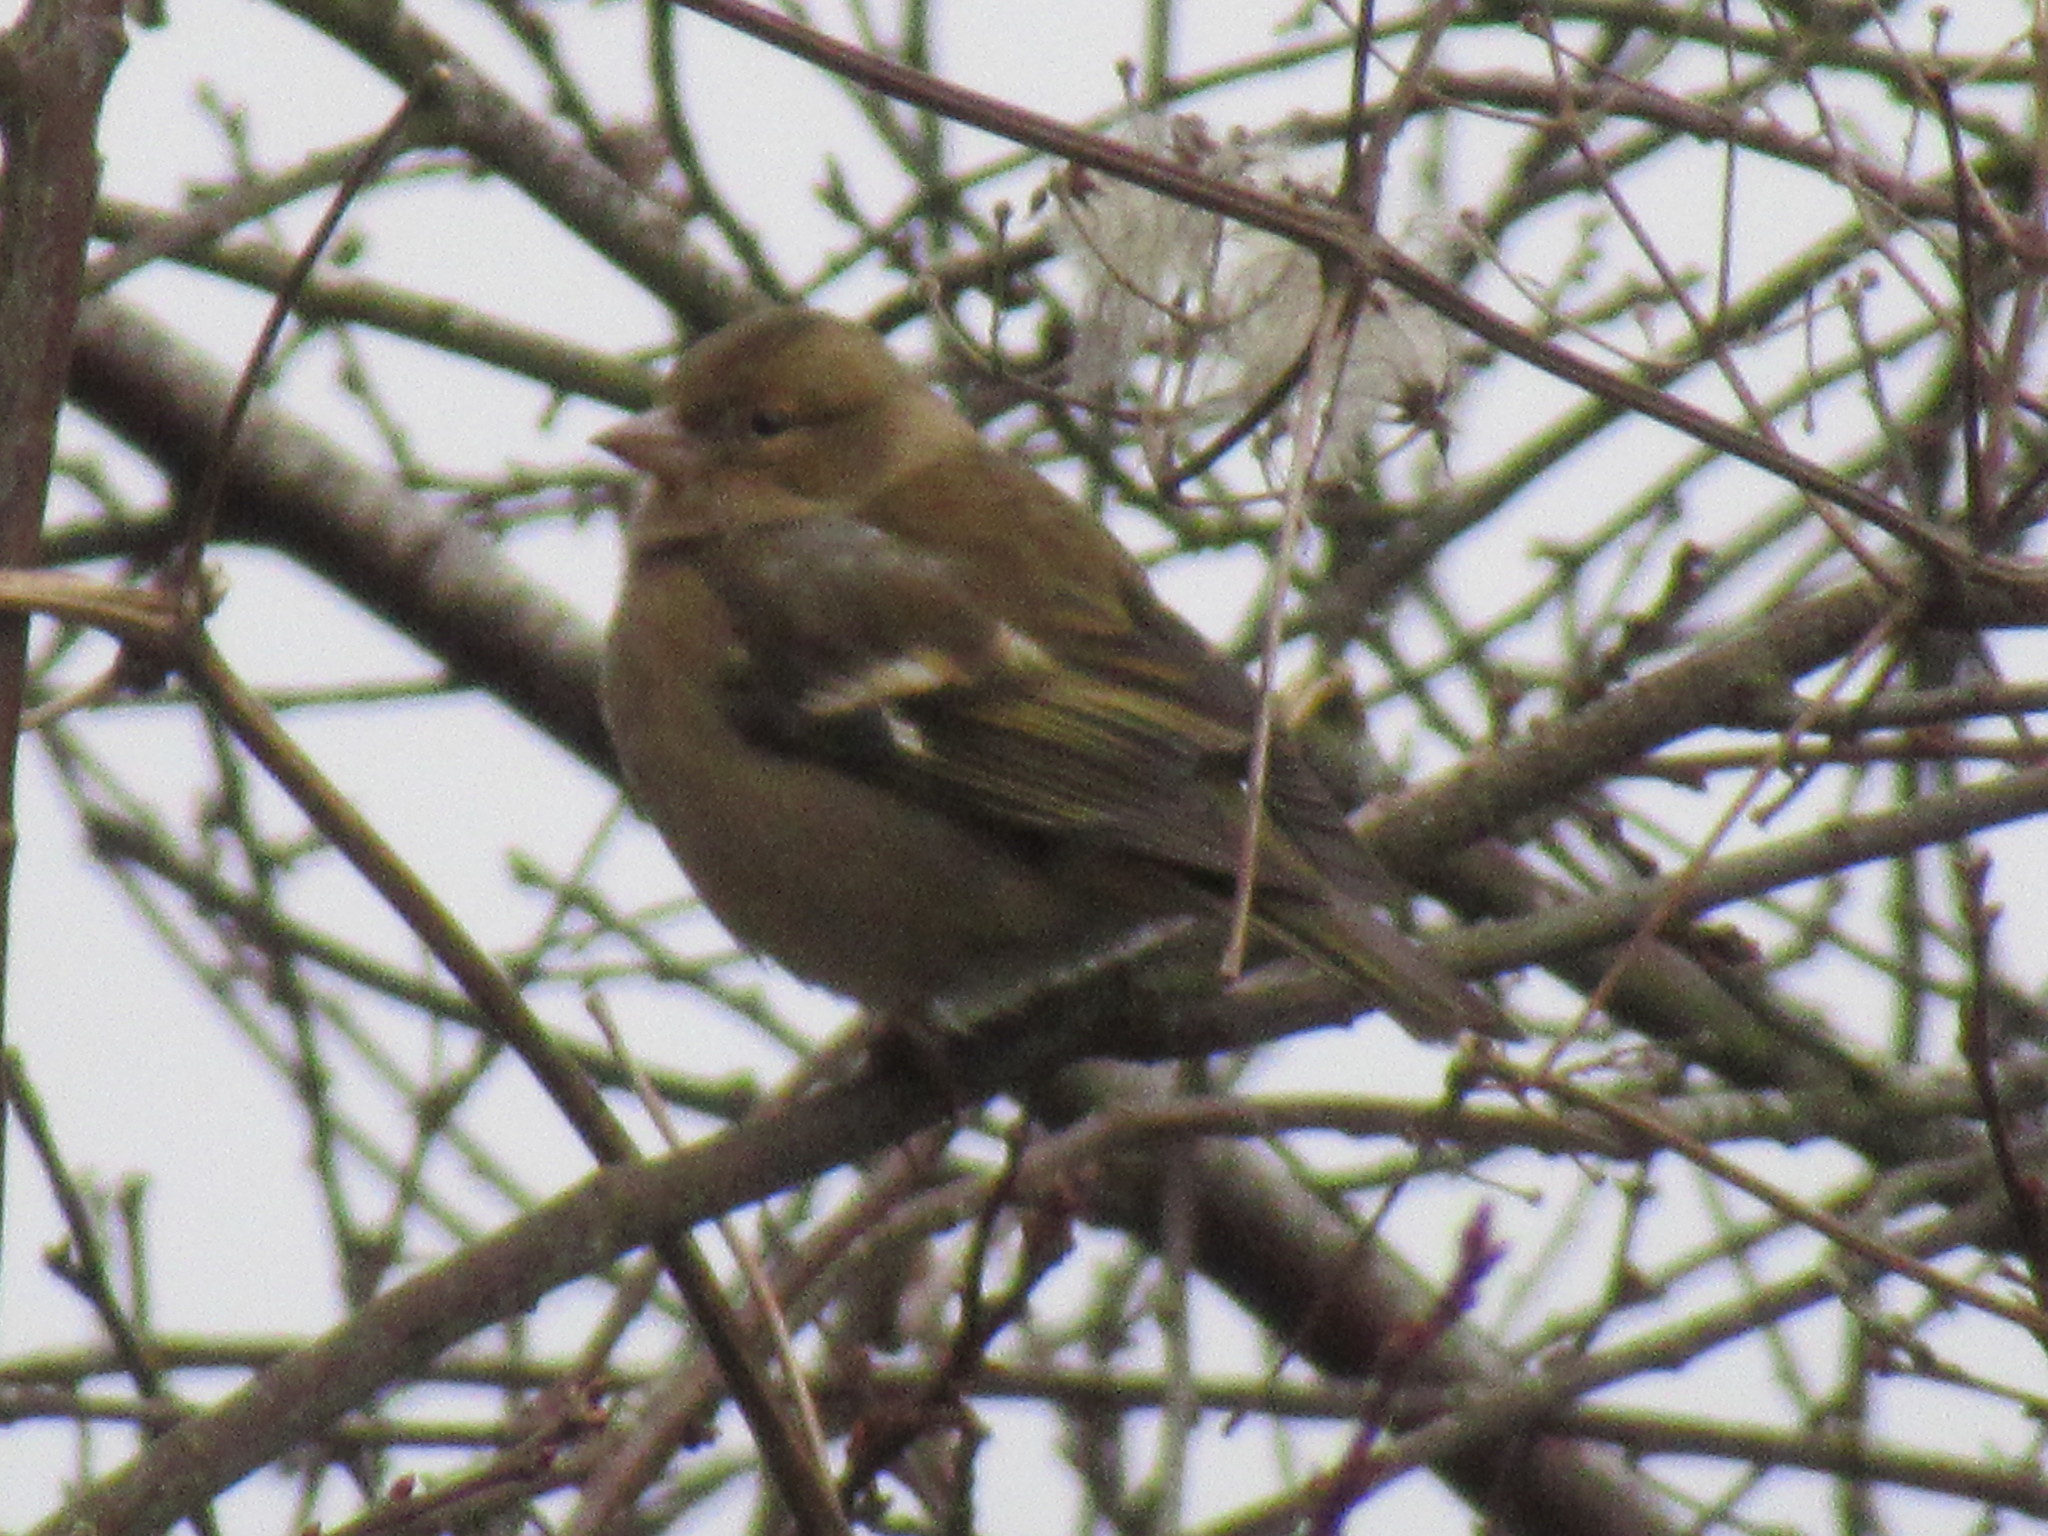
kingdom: Animalia
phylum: Chordata
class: Aves
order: Passeriformes
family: Fringillidae
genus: Fringilla
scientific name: Fringilla coelebs
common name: Common chaffinch
